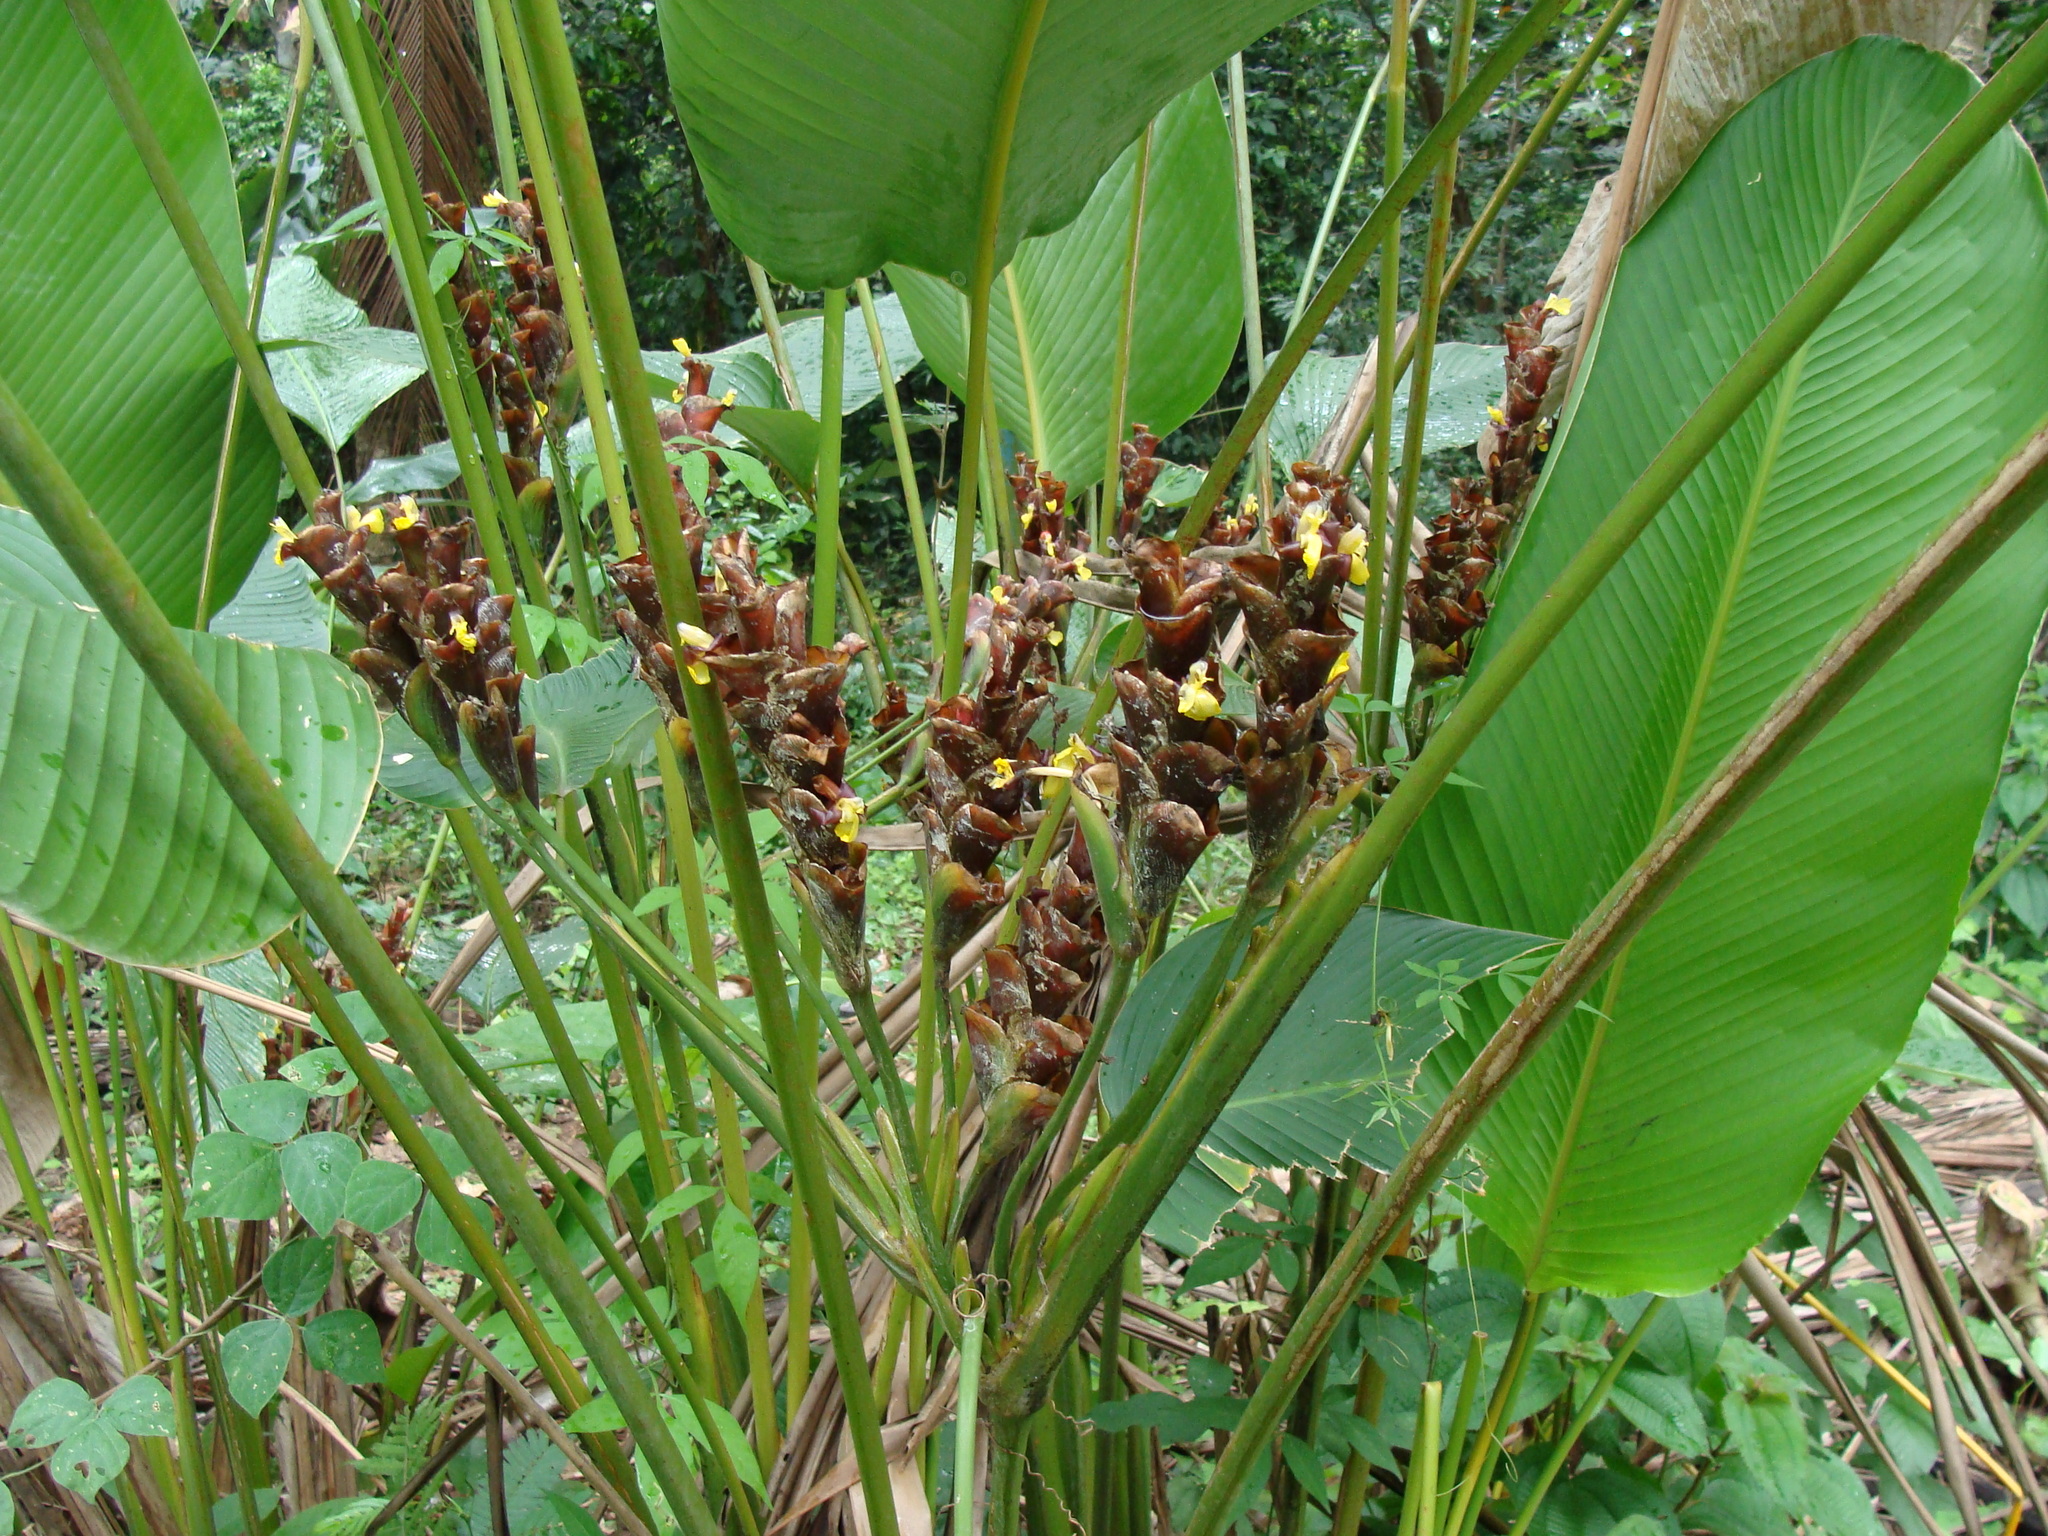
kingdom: Plantae
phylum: Tracheophyta
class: Liliopsida
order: Zingiberales
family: Marantaceae
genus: Calathea
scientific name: Calathea lutea
